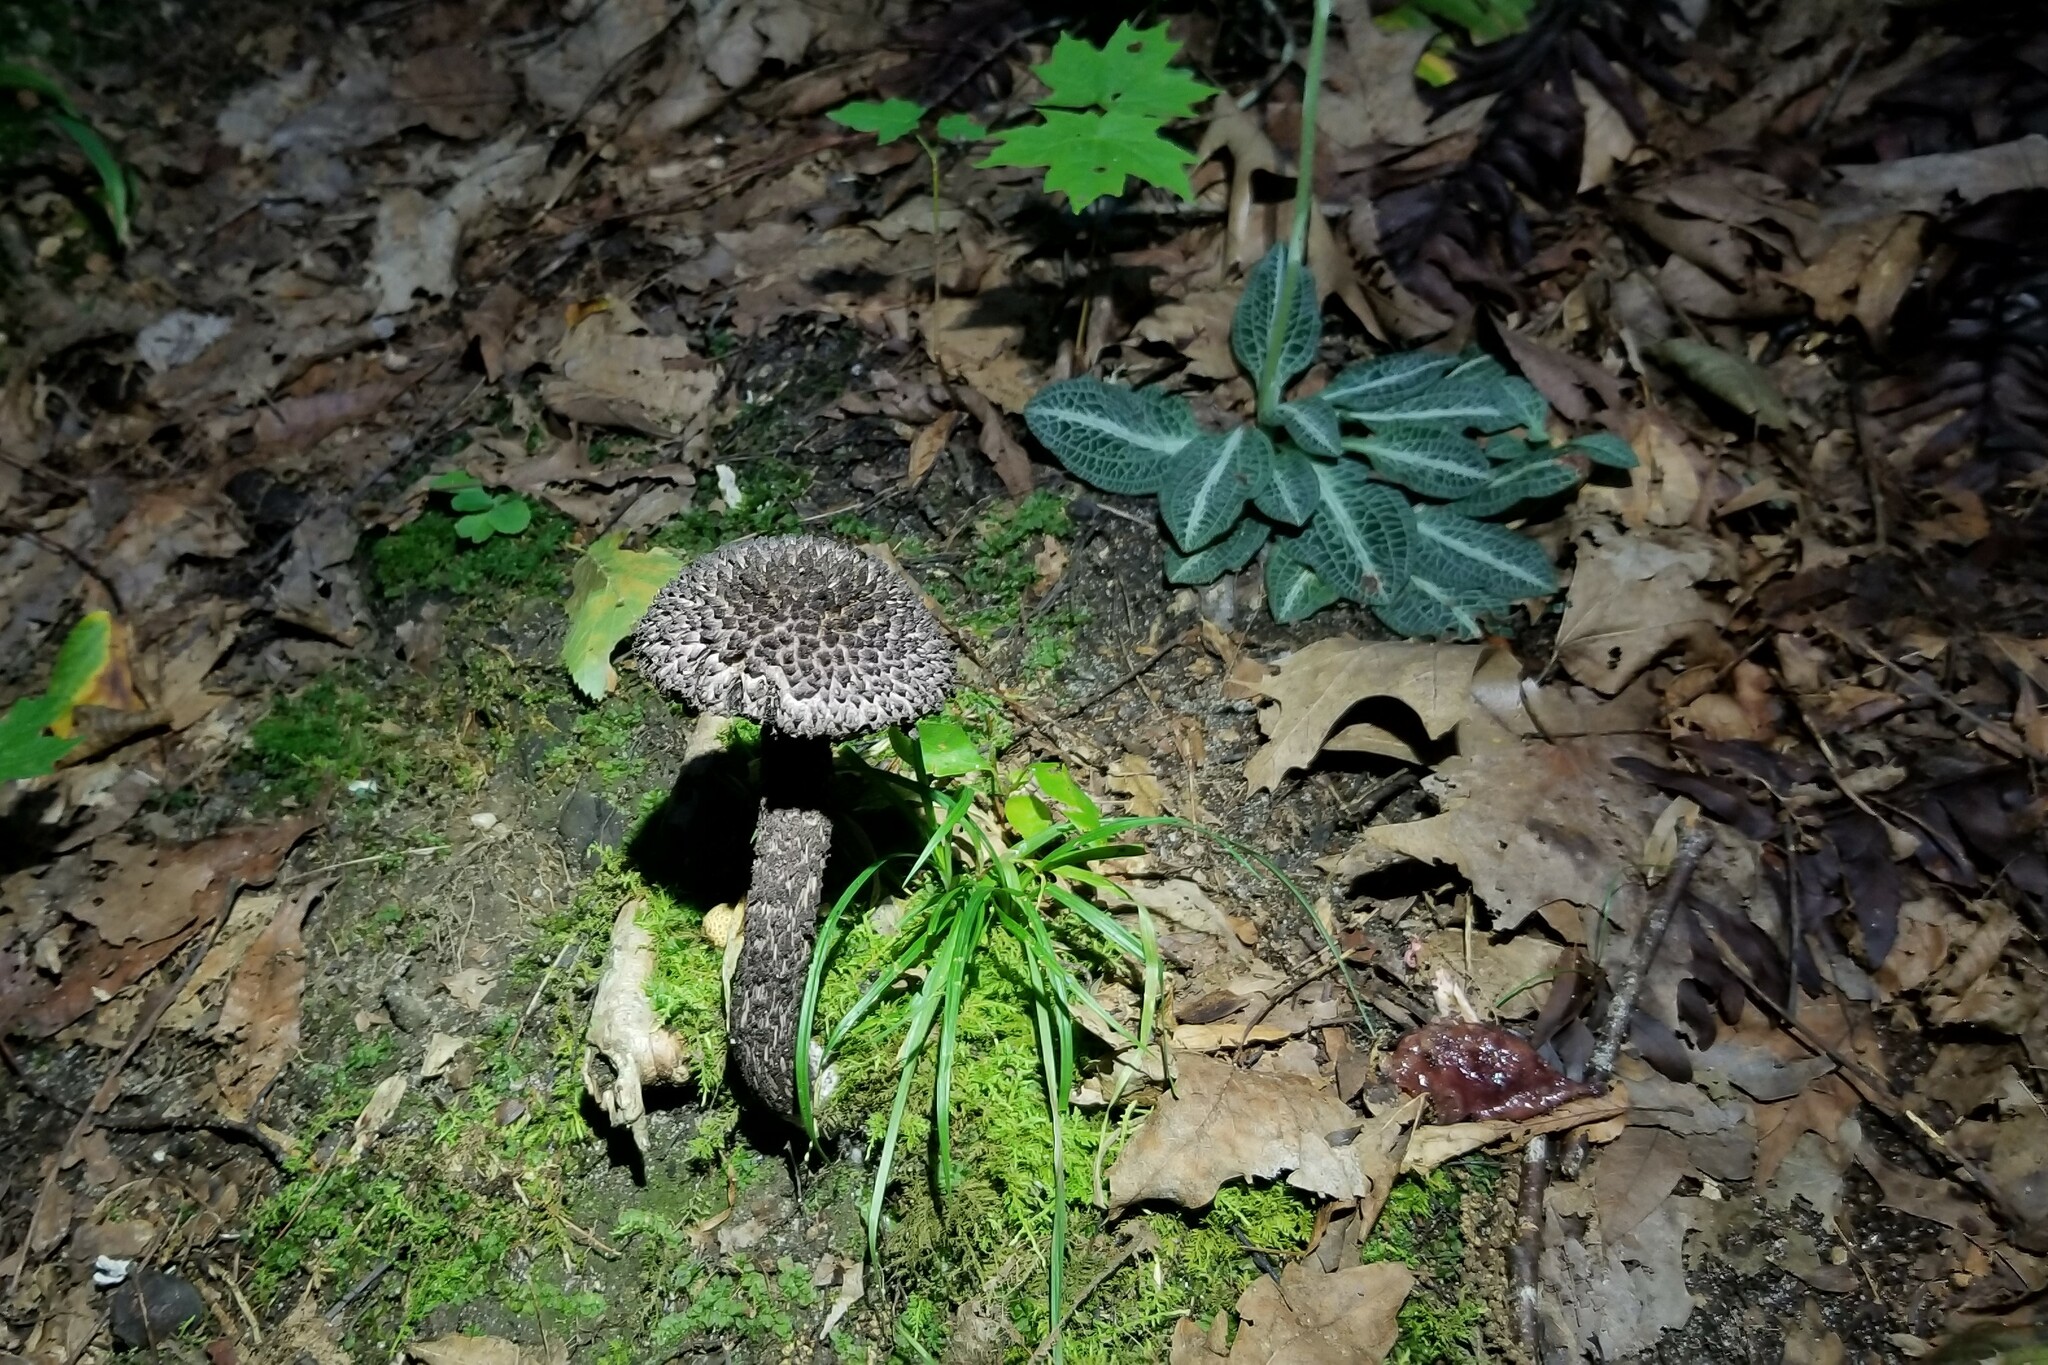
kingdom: Fungi
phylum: Basidiomycota
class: Agaricomycetes
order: Boletales
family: Boletaceae
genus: Strobilomyces
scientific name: Strobilomyces strobilaceus
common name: Old man of the woods
